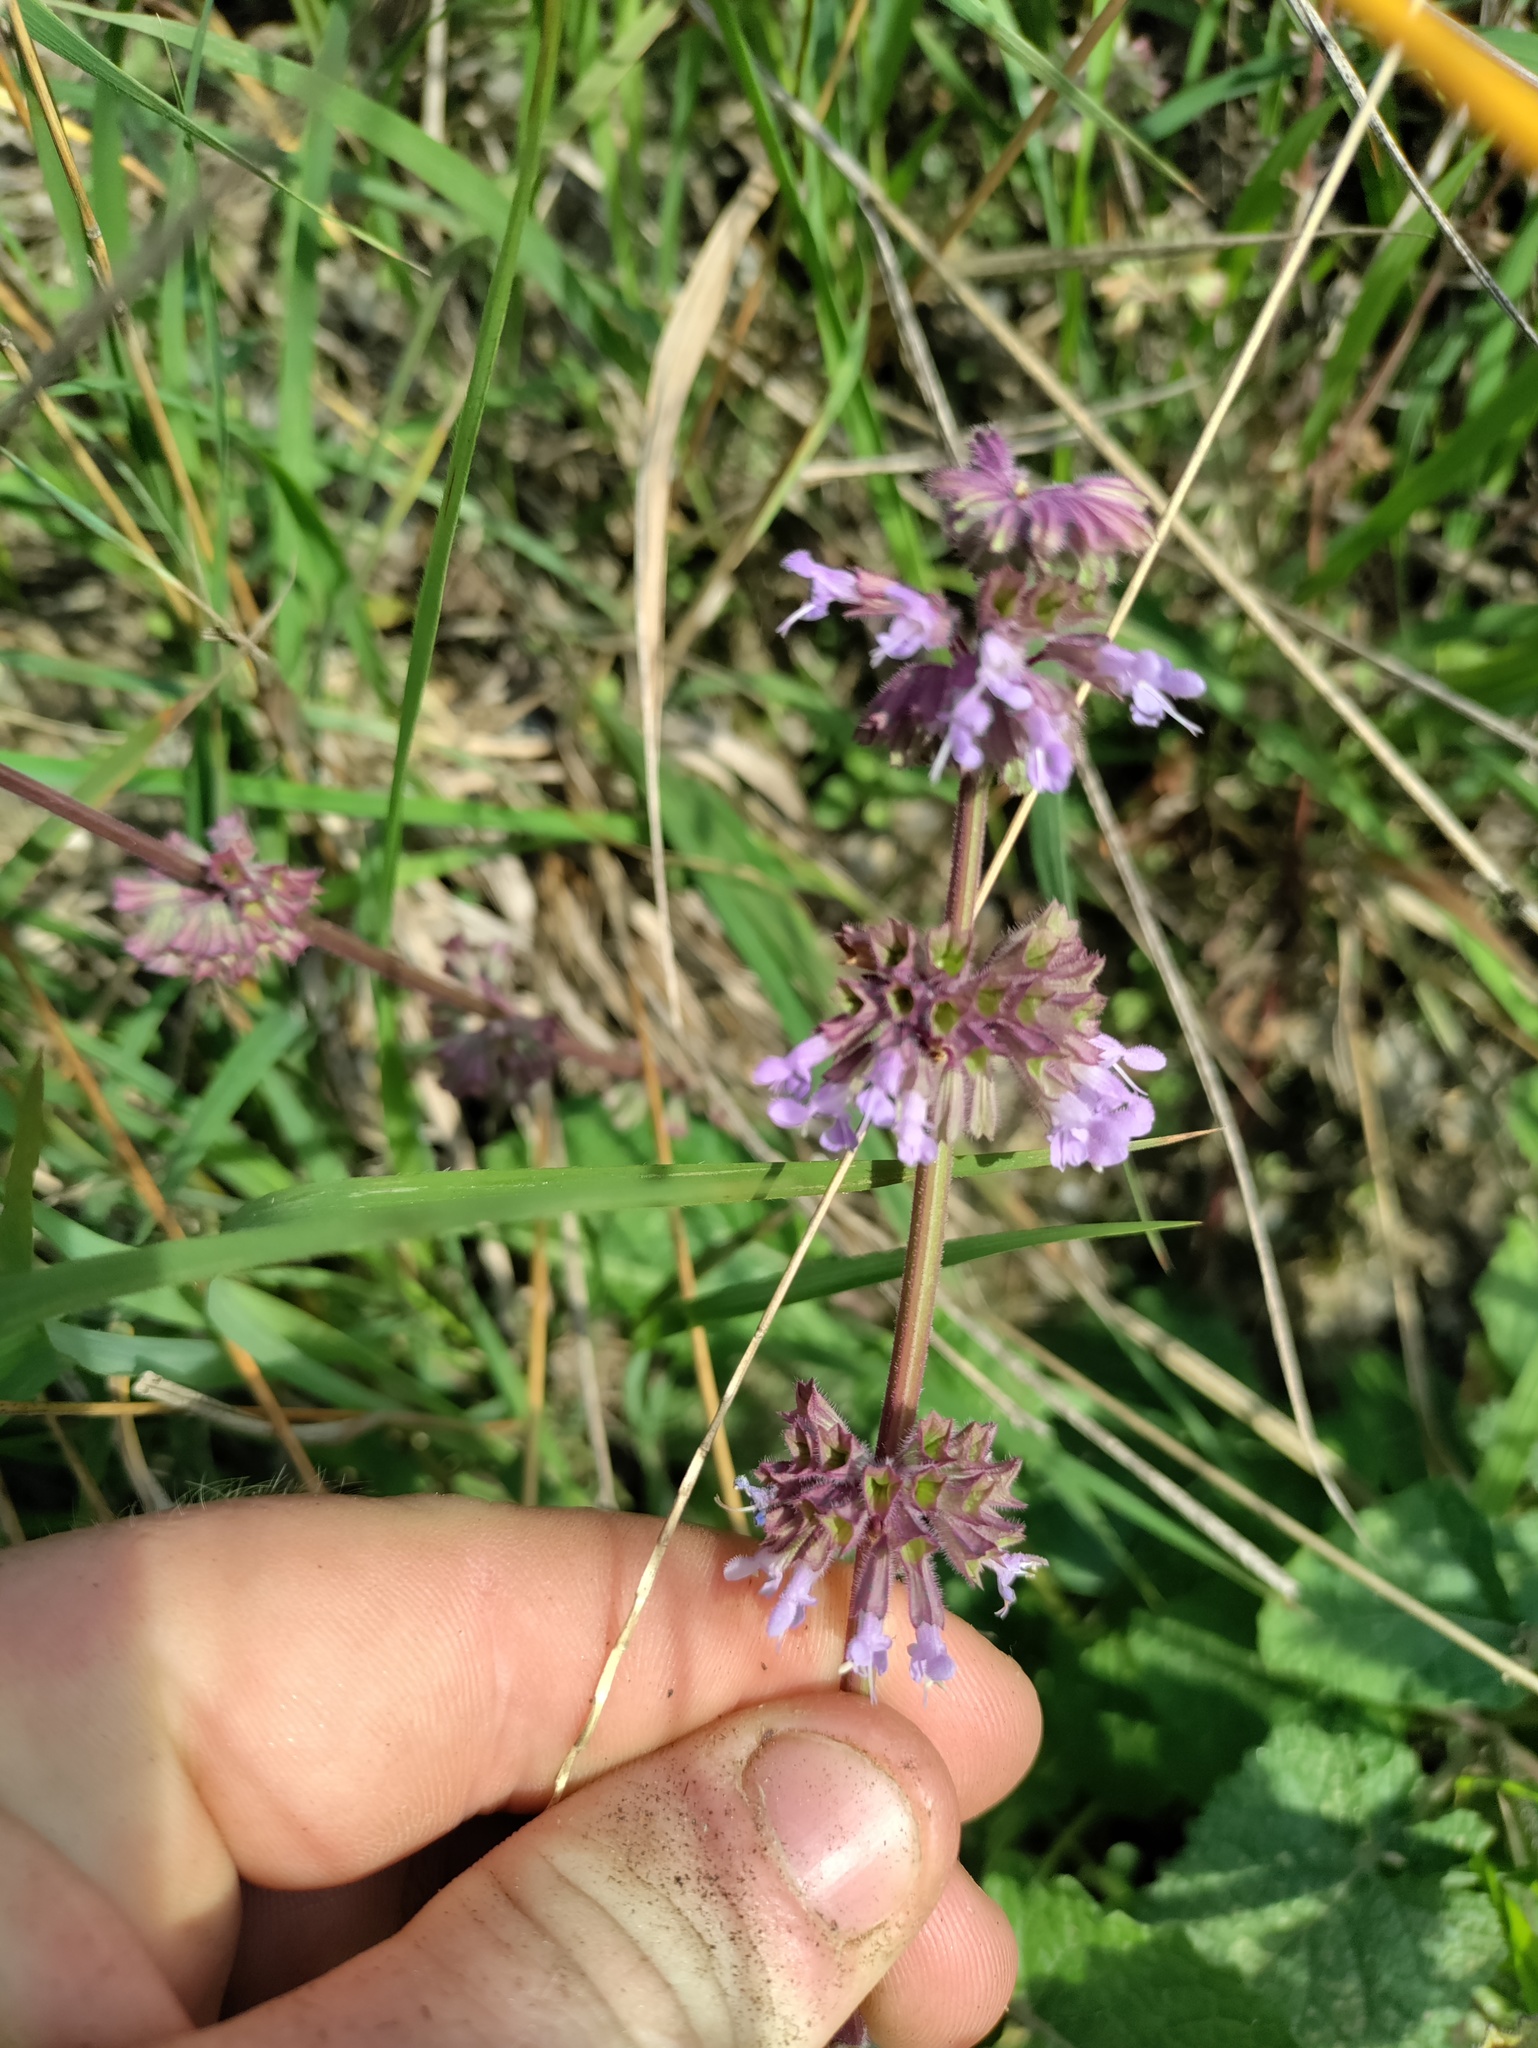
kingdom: Plantae
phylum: Tracheophyta
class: Magnoliopsida
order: Lamiales
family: Lamiaceae
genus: Salvia
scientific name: Salvia verticillata
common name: Whorled clary
